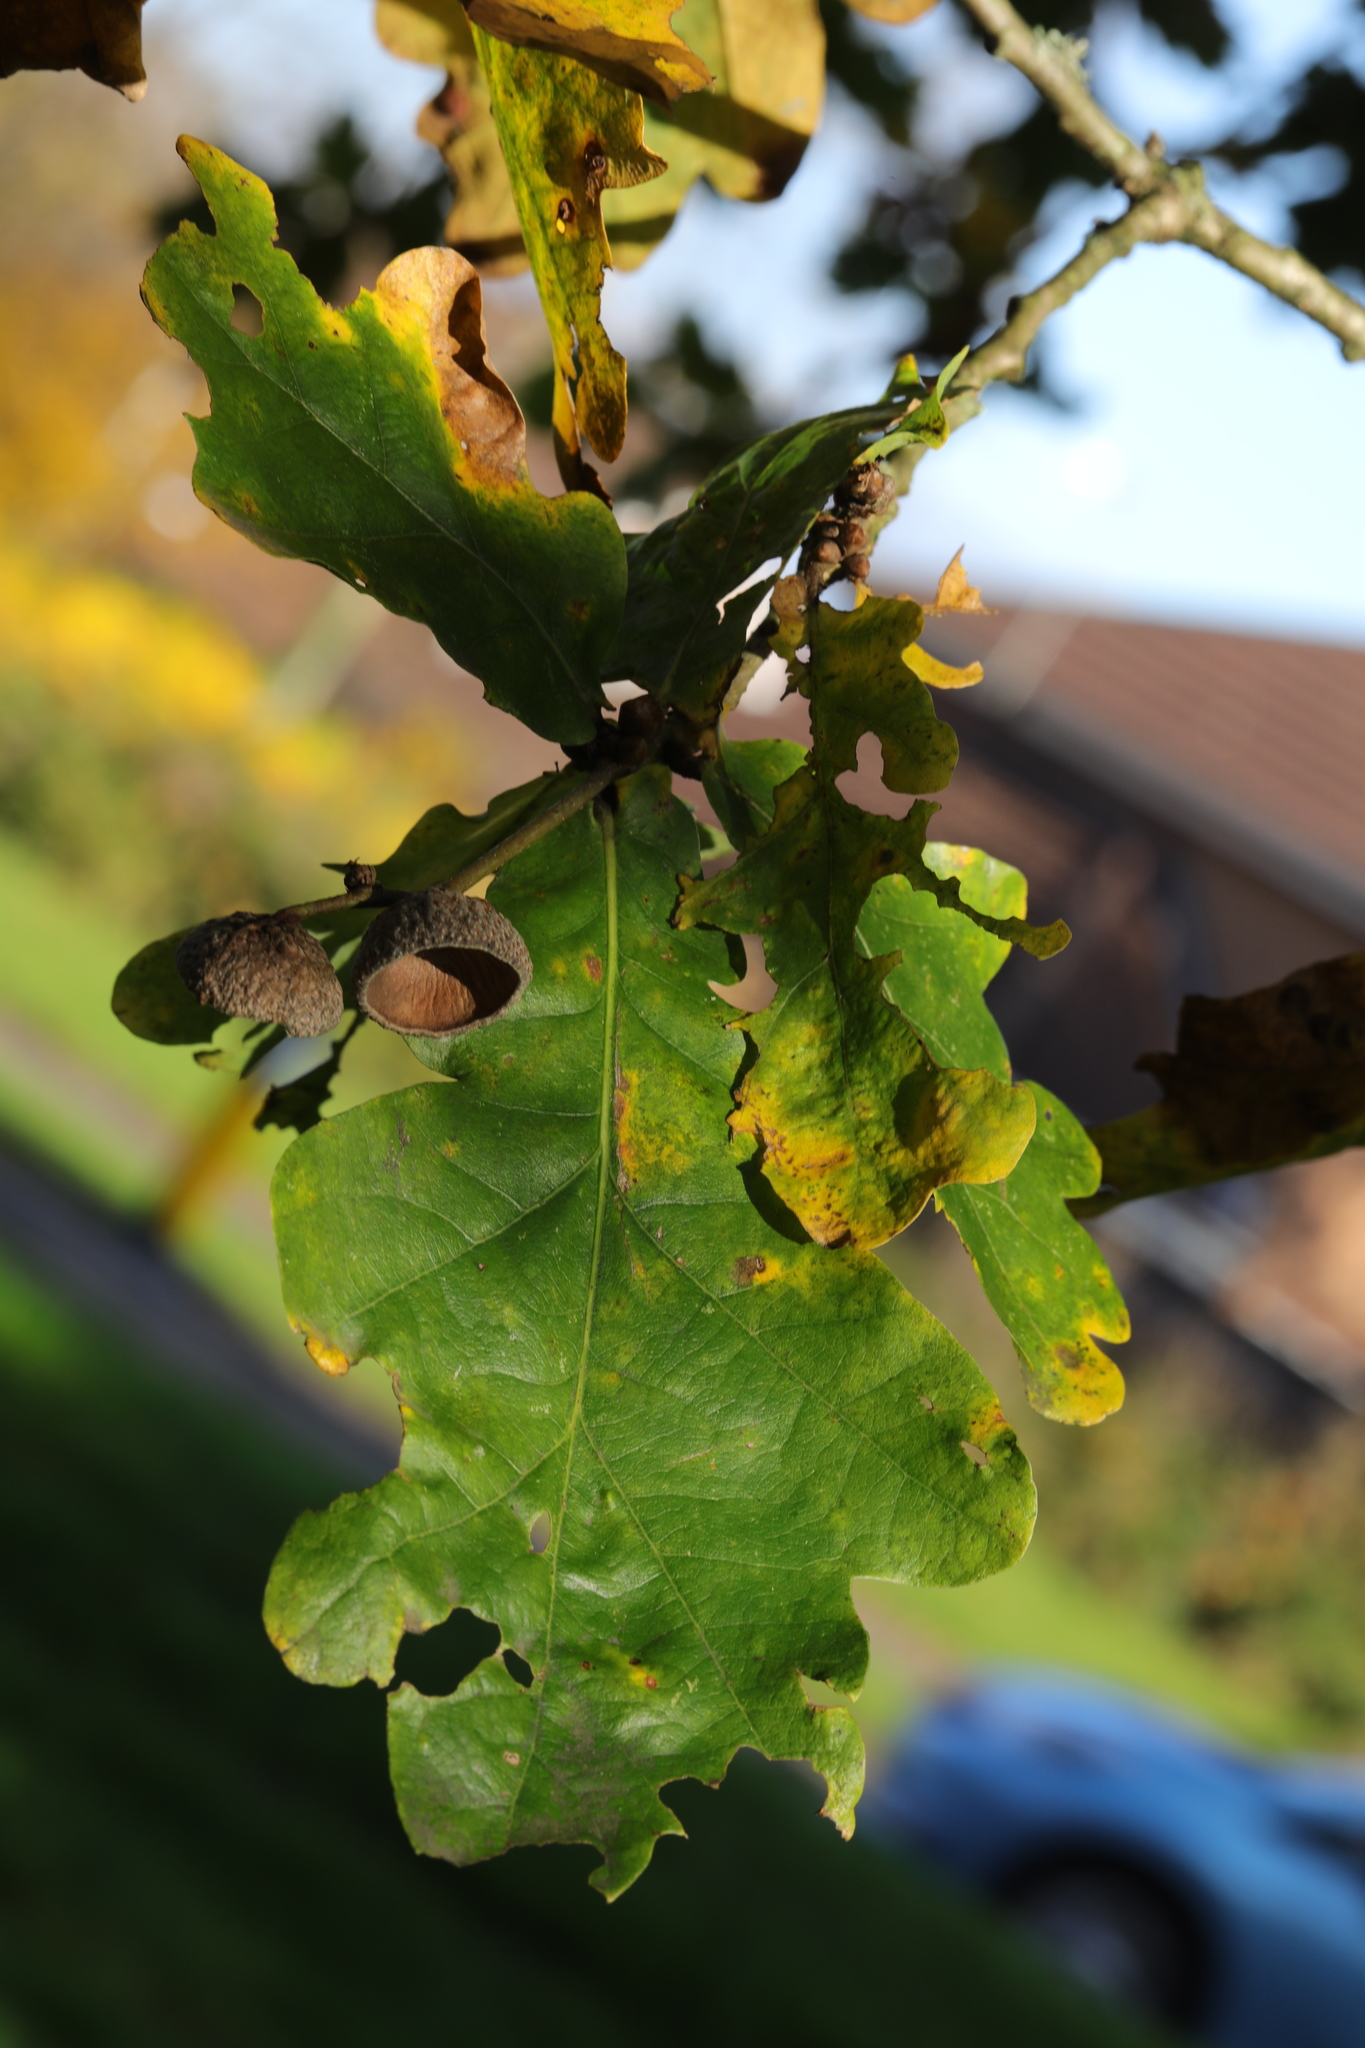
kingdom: Plantae
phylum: Tracheophyta
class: Magnoliopsida
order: Fagales
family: Fagaceae
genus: Quercus
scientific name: Quercus robur
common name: Pedunculate oak
